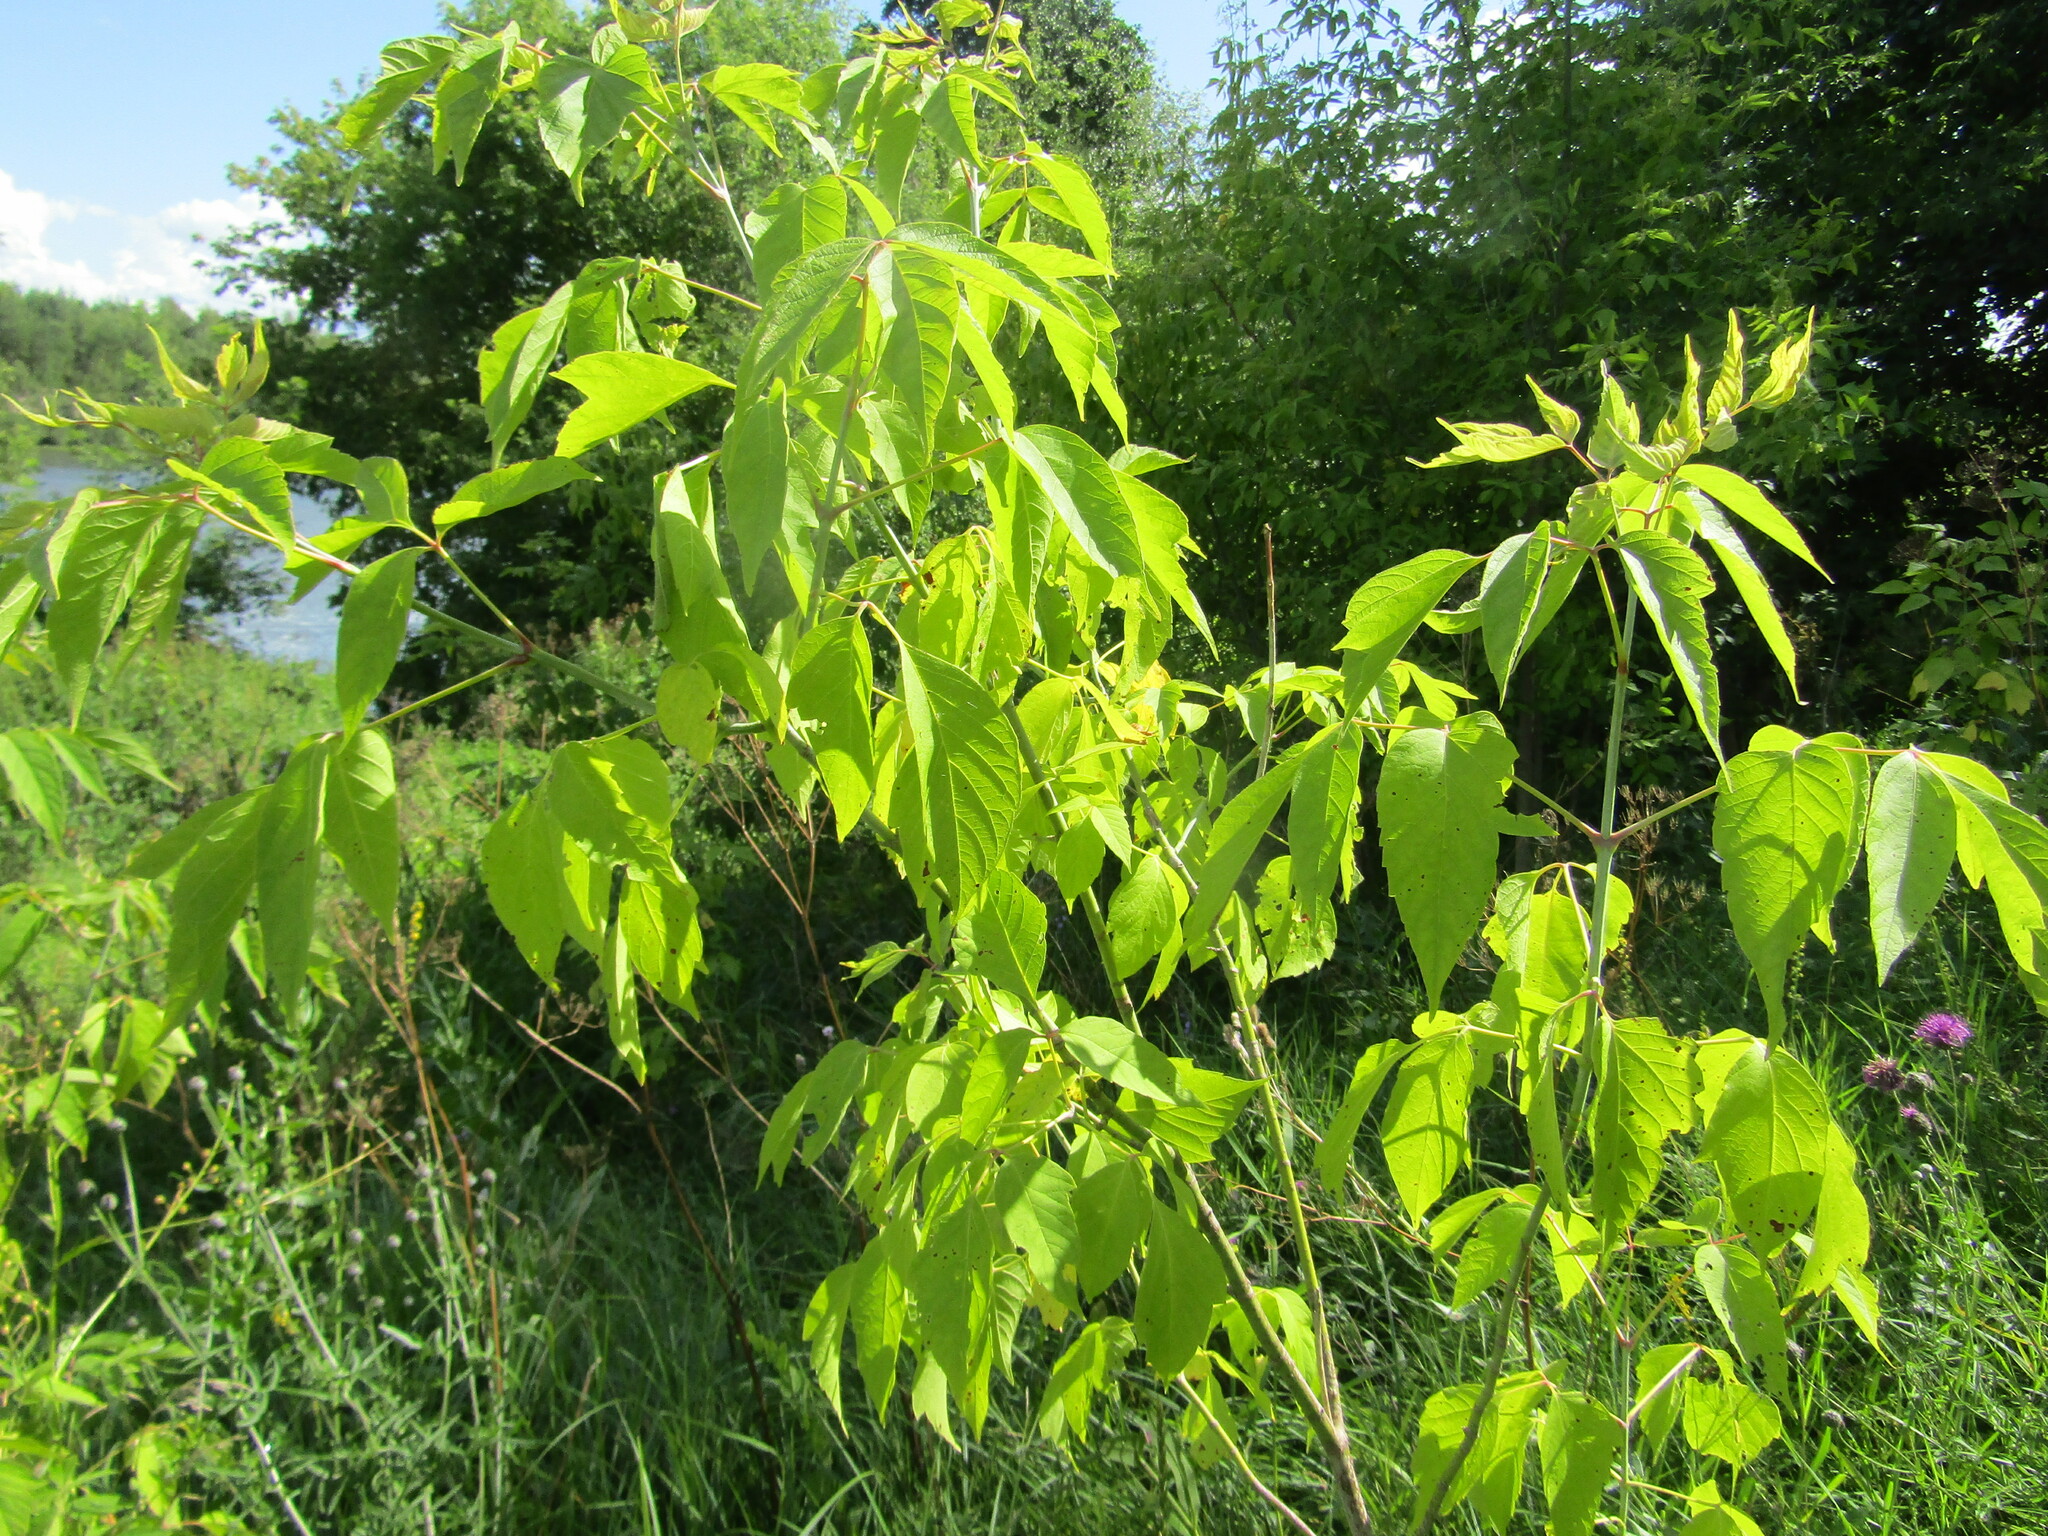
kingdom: Plantae
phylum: Tracheophyta
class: Magnoliopsida
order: Sapindales
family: Sapindaceae
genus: Acer
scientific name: Acer negundo
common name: Ashleaf maple
